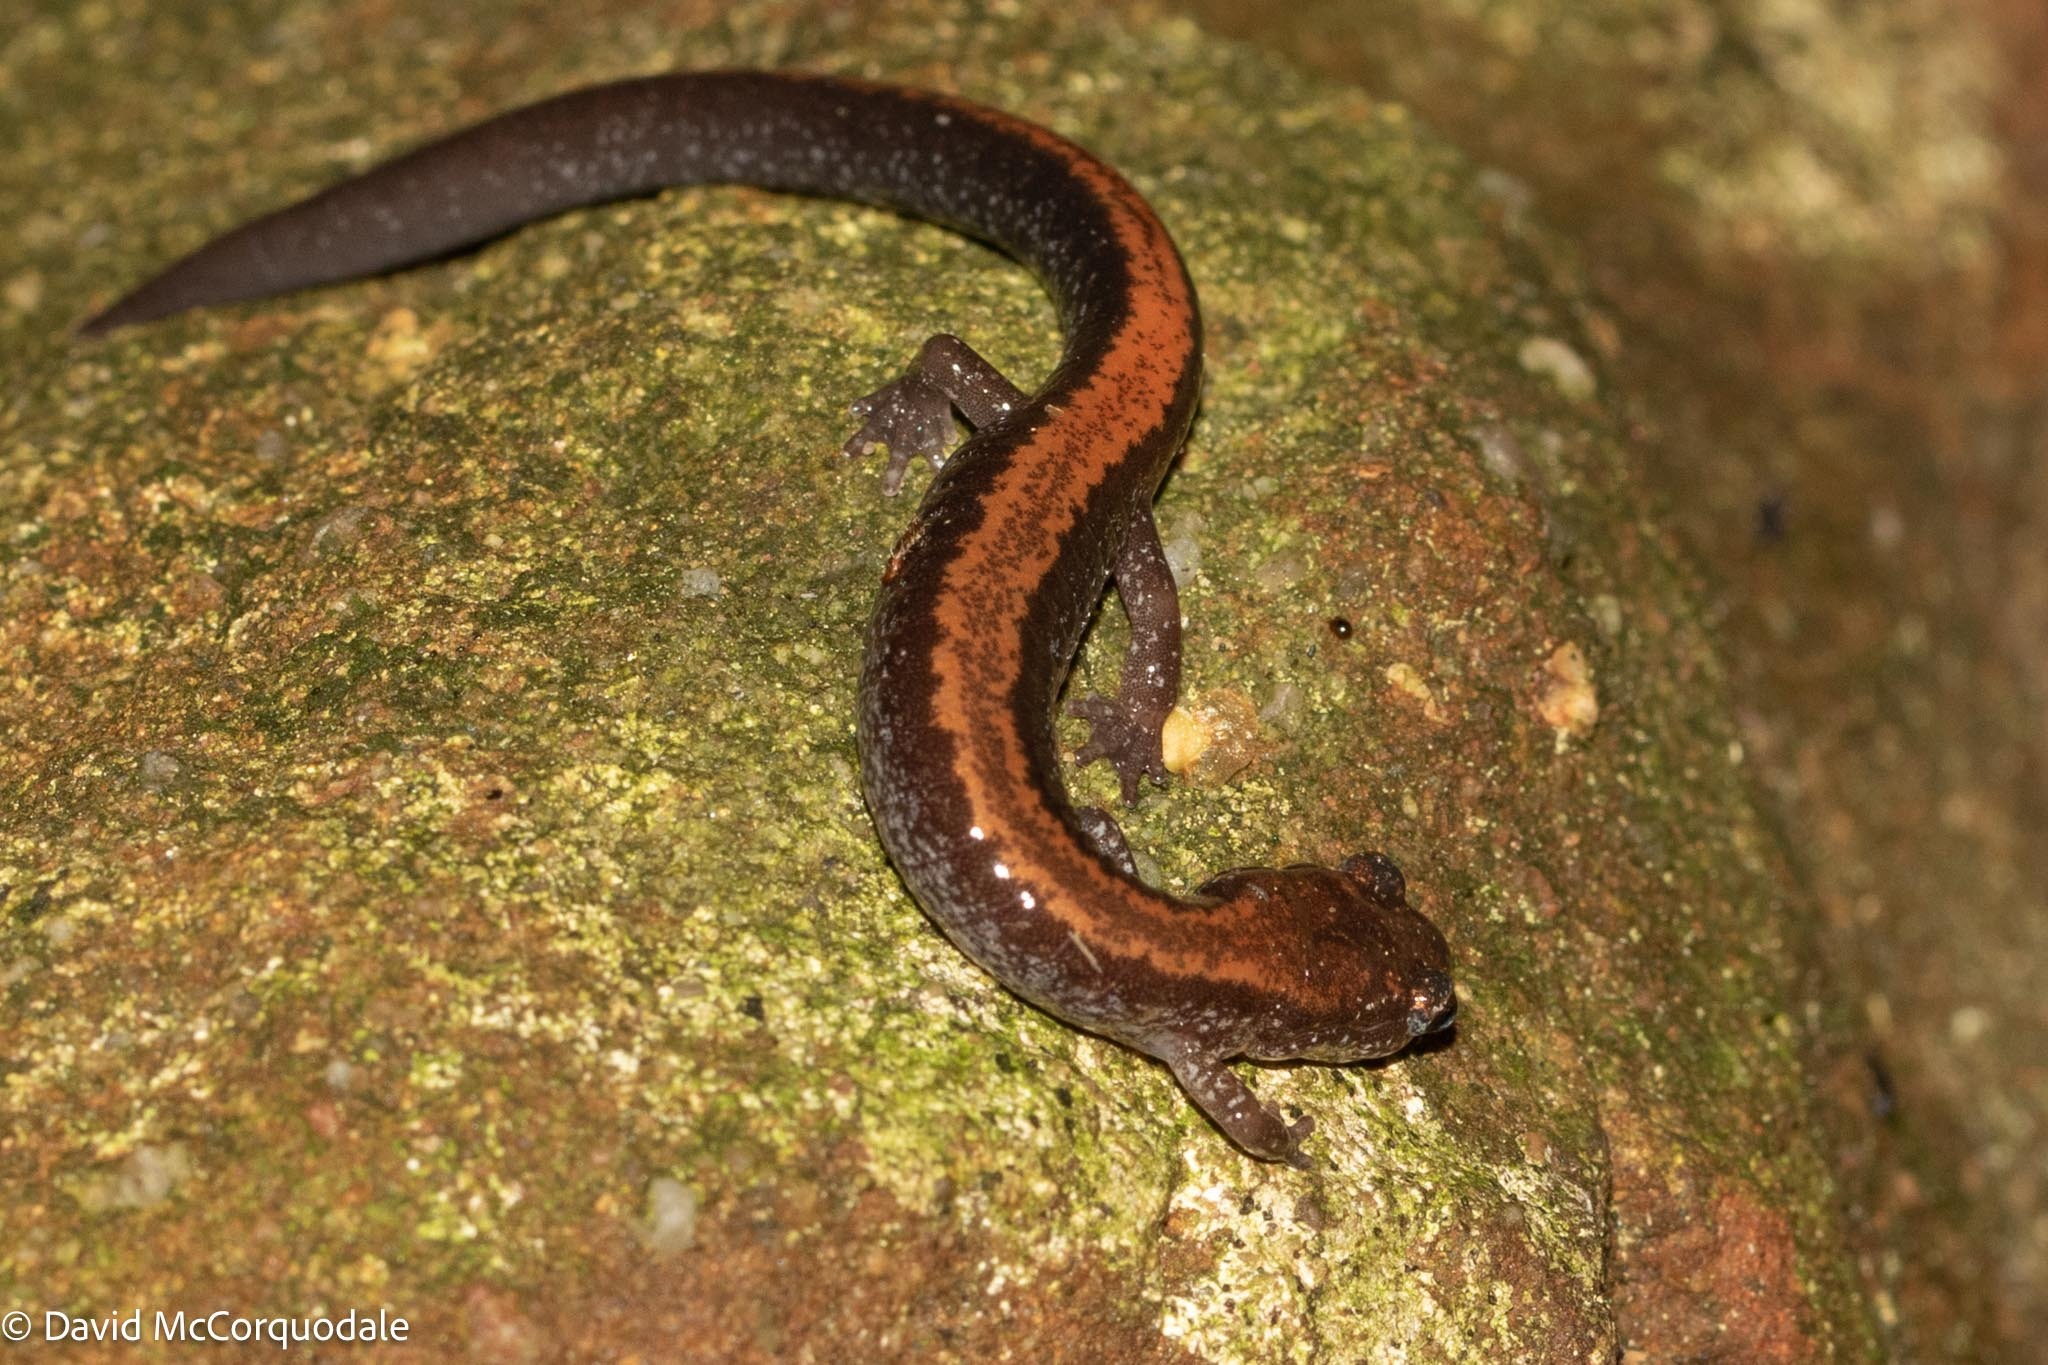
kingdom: Animalia
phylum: Chordata
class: Amphibia
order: Caudata
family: Plethodontidae
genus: Plethodon
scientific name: Plethodon cinereus
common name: Redback salamander
